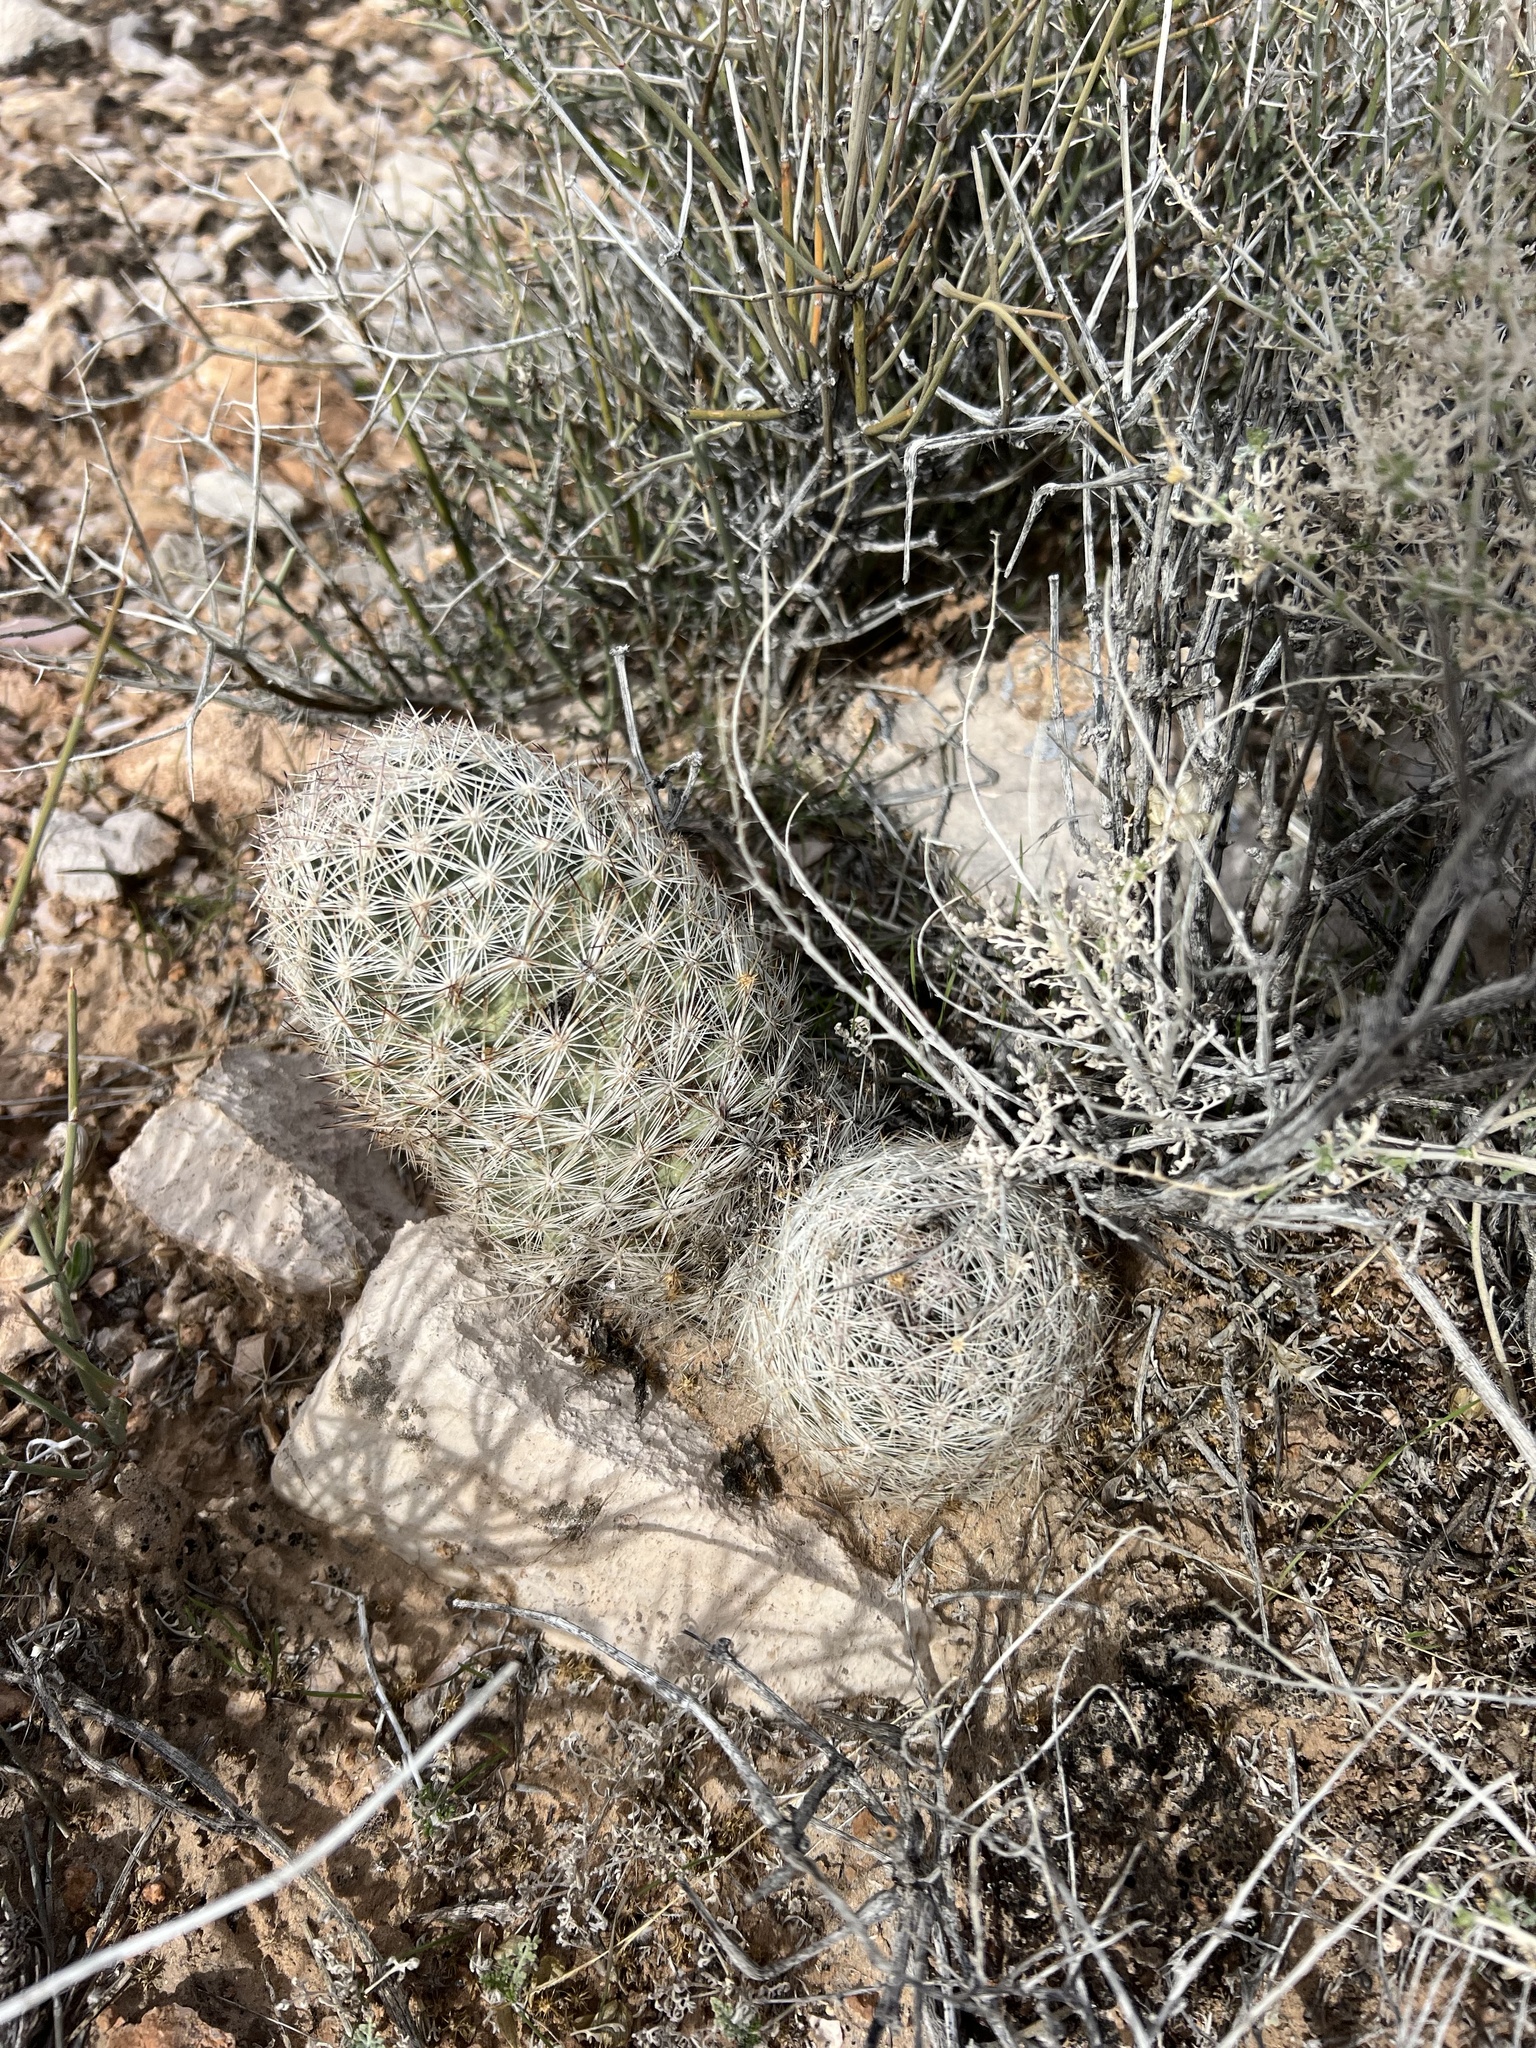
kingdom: Plantae
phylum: Tracheophyta
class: Magnoliopsida
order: Caryophyllales
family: Cactaceae
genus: Pelecyphora
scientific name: Pelecyphora dasyacantha
